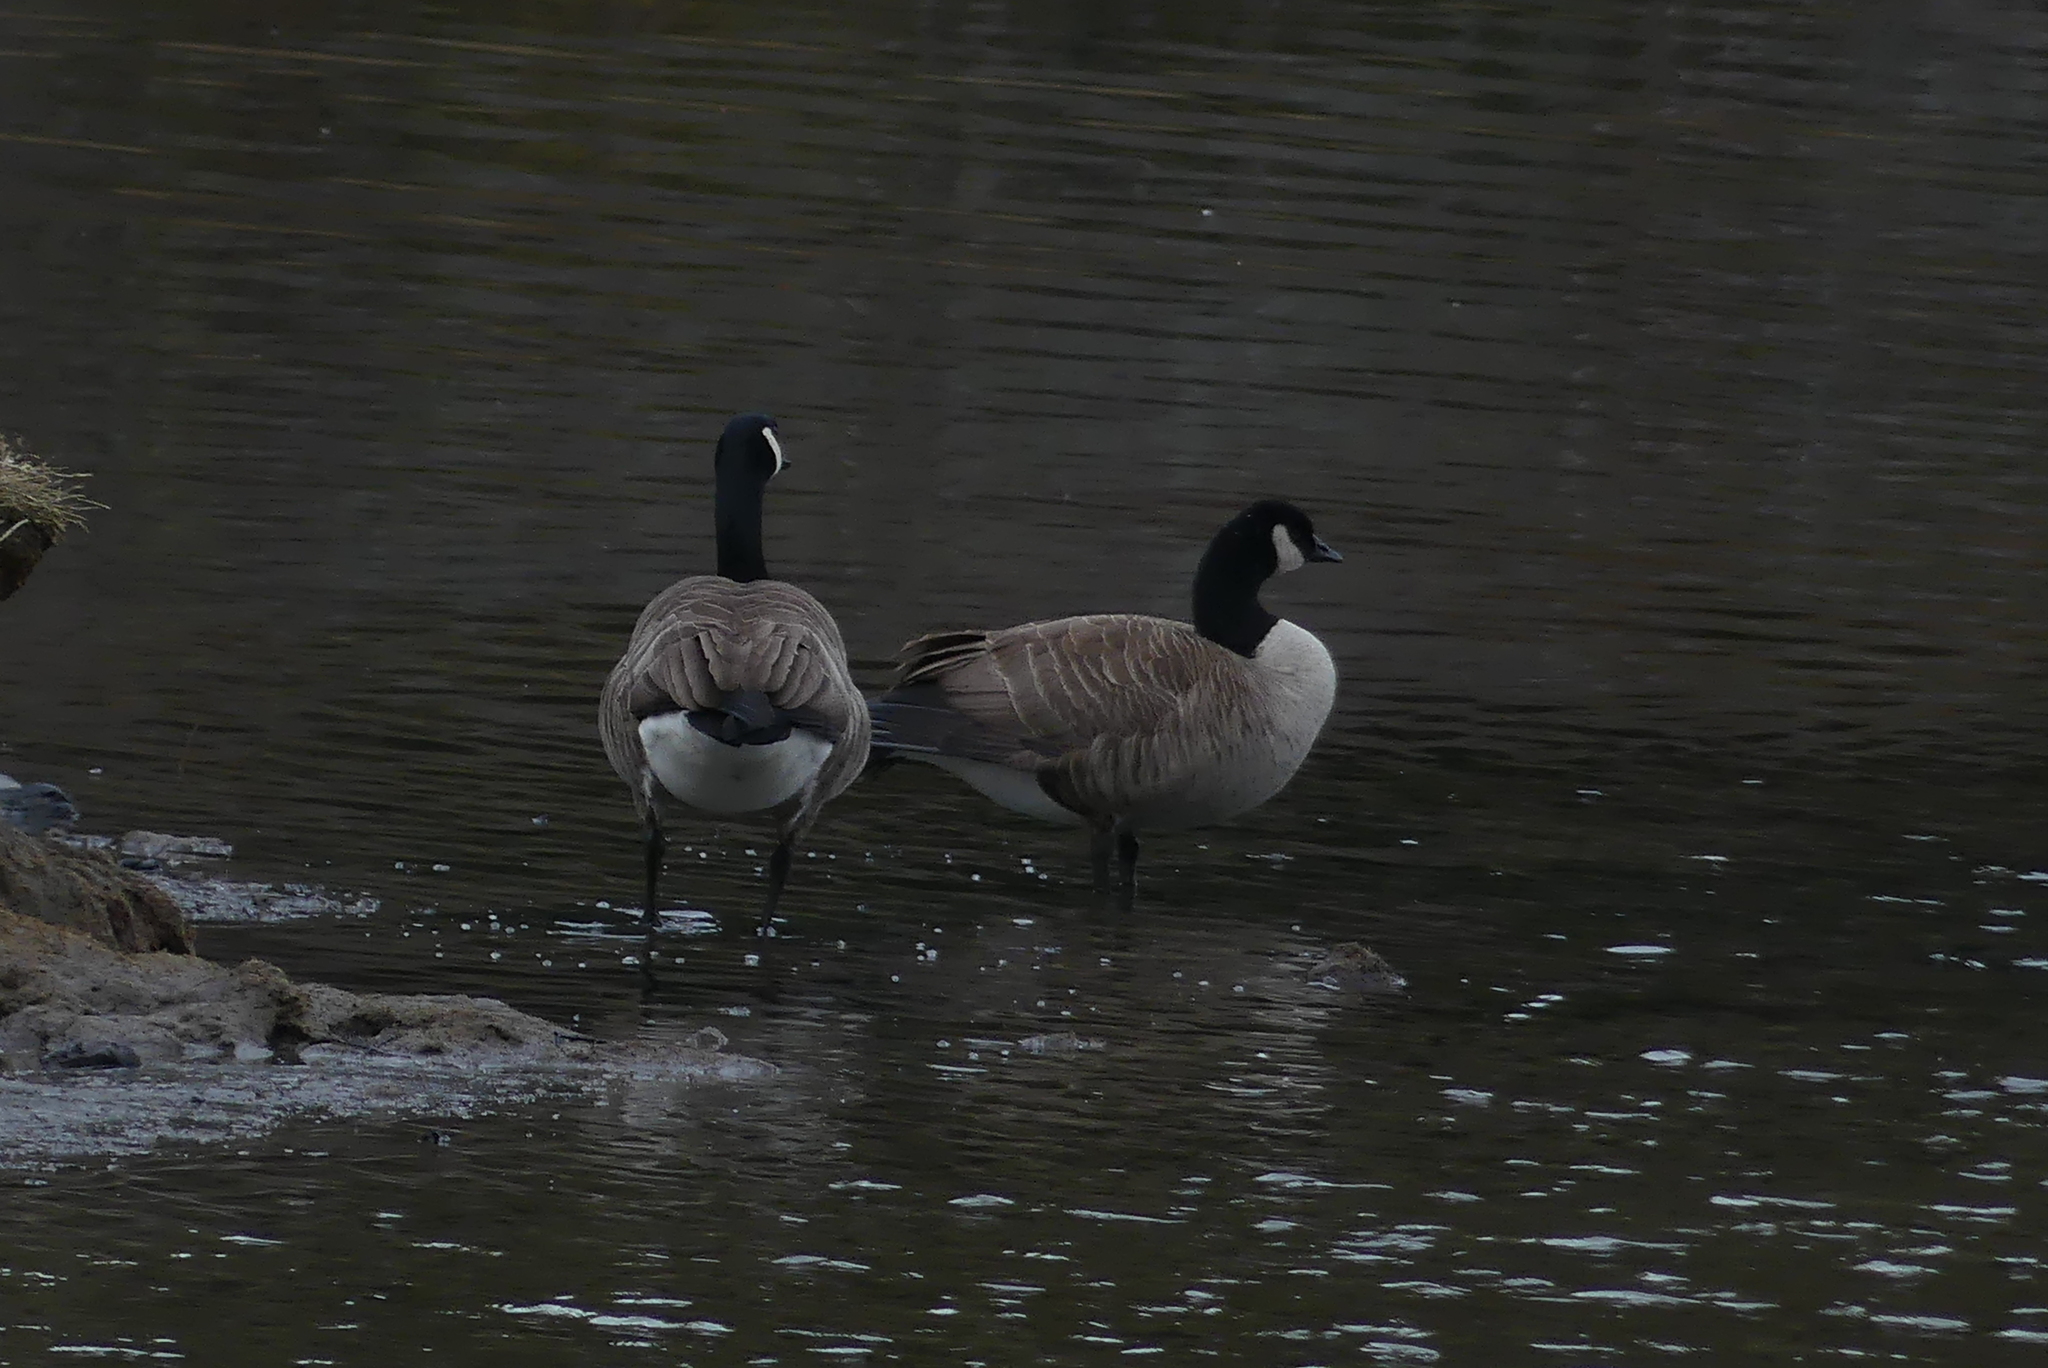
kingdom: Animalia
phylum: Chordata
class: Aves
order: Anseriformes
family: Anatidae
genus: Branta
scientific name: Branta canadensis
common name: Canada goose
